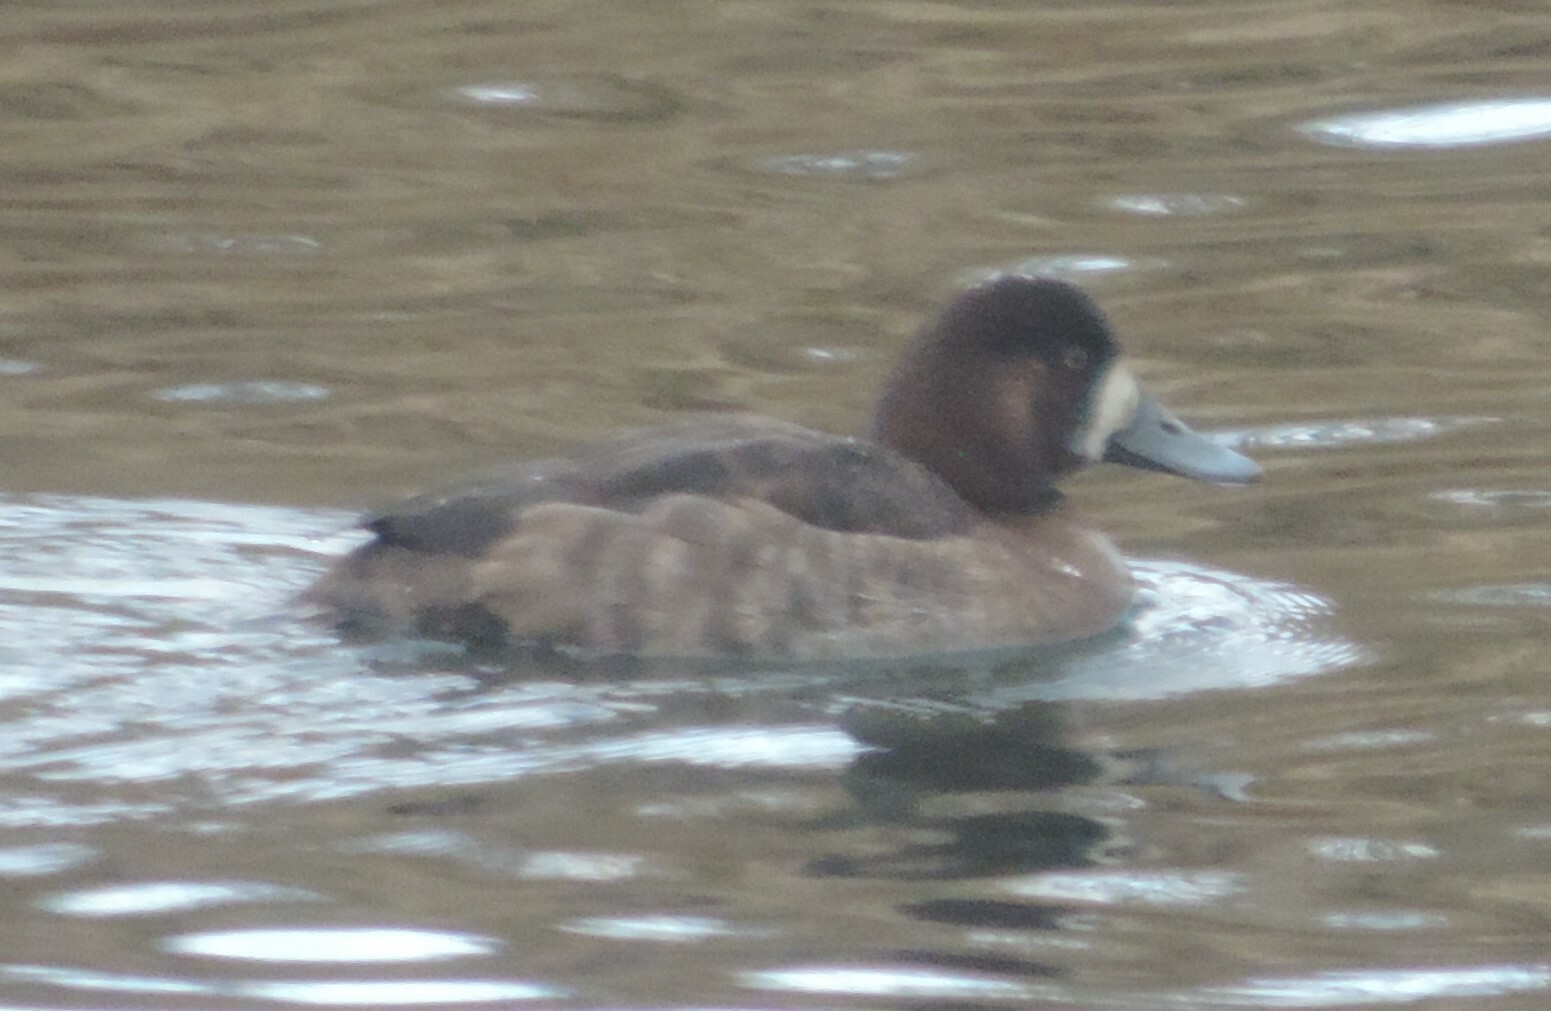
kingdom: Animalia
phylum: Chordata
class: Aves
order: Anseriformes
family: Anatidae
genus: Aythya
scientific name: Aythya marila
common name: Greater scaup
